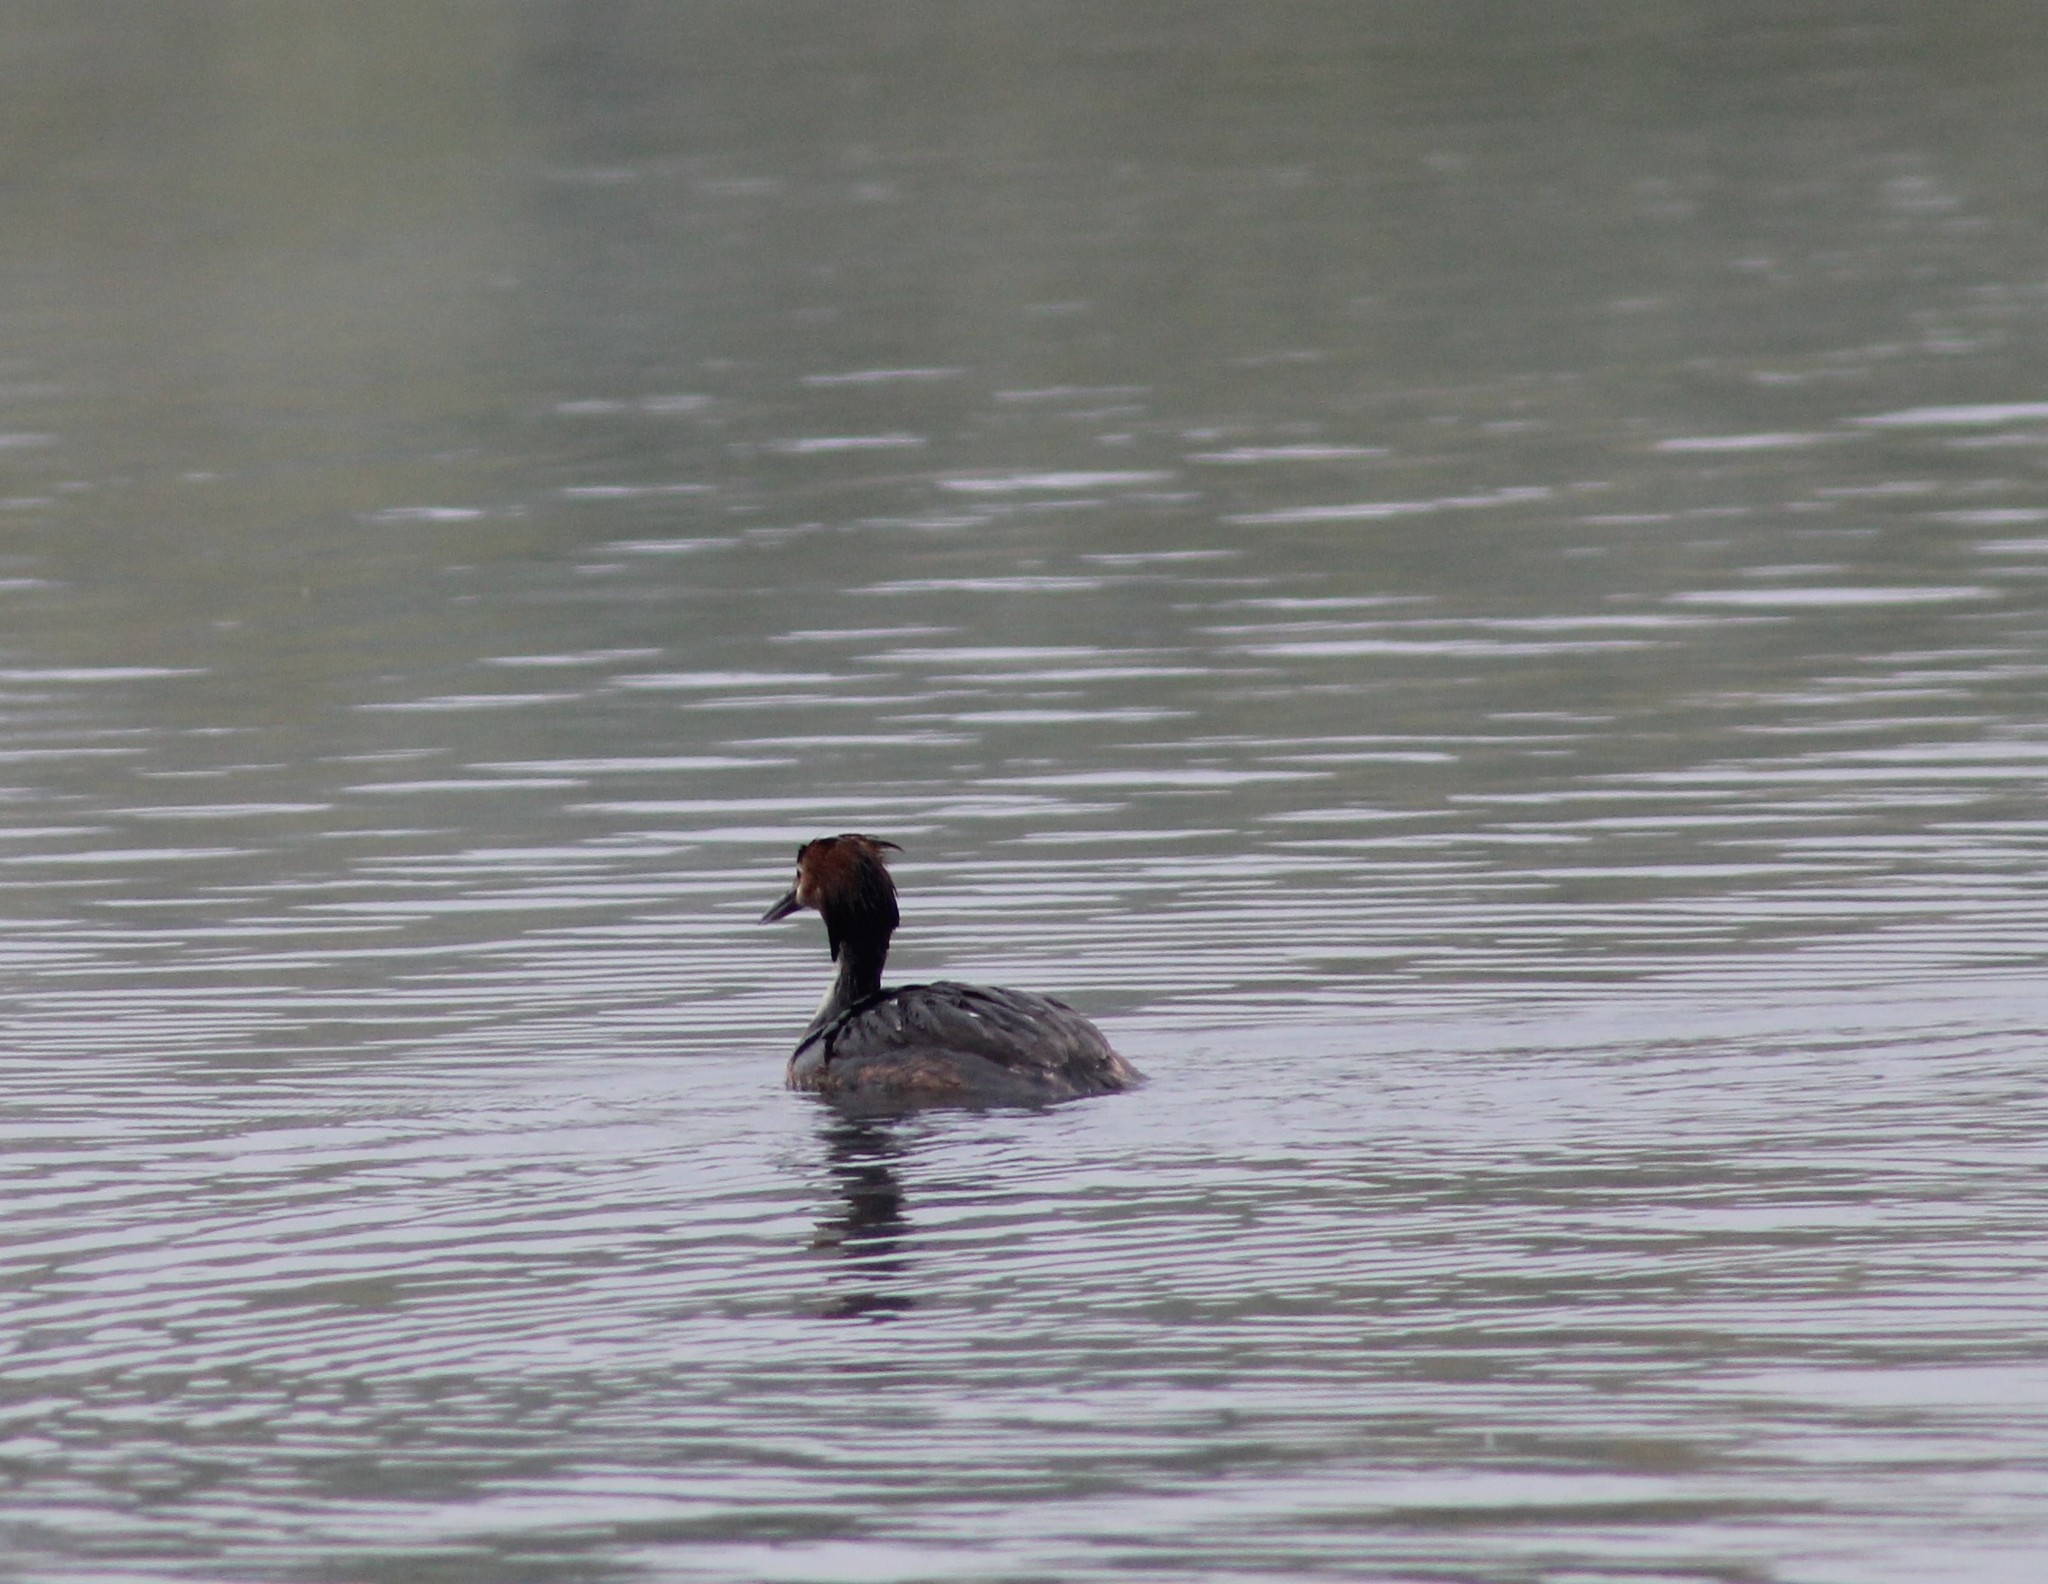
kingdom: Animalia
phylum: Chordata
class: Aves
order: Podicipediformes
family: Podicipedidae
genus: Podiceps
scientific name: Podiceps cristatus
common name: Great crested grebe
